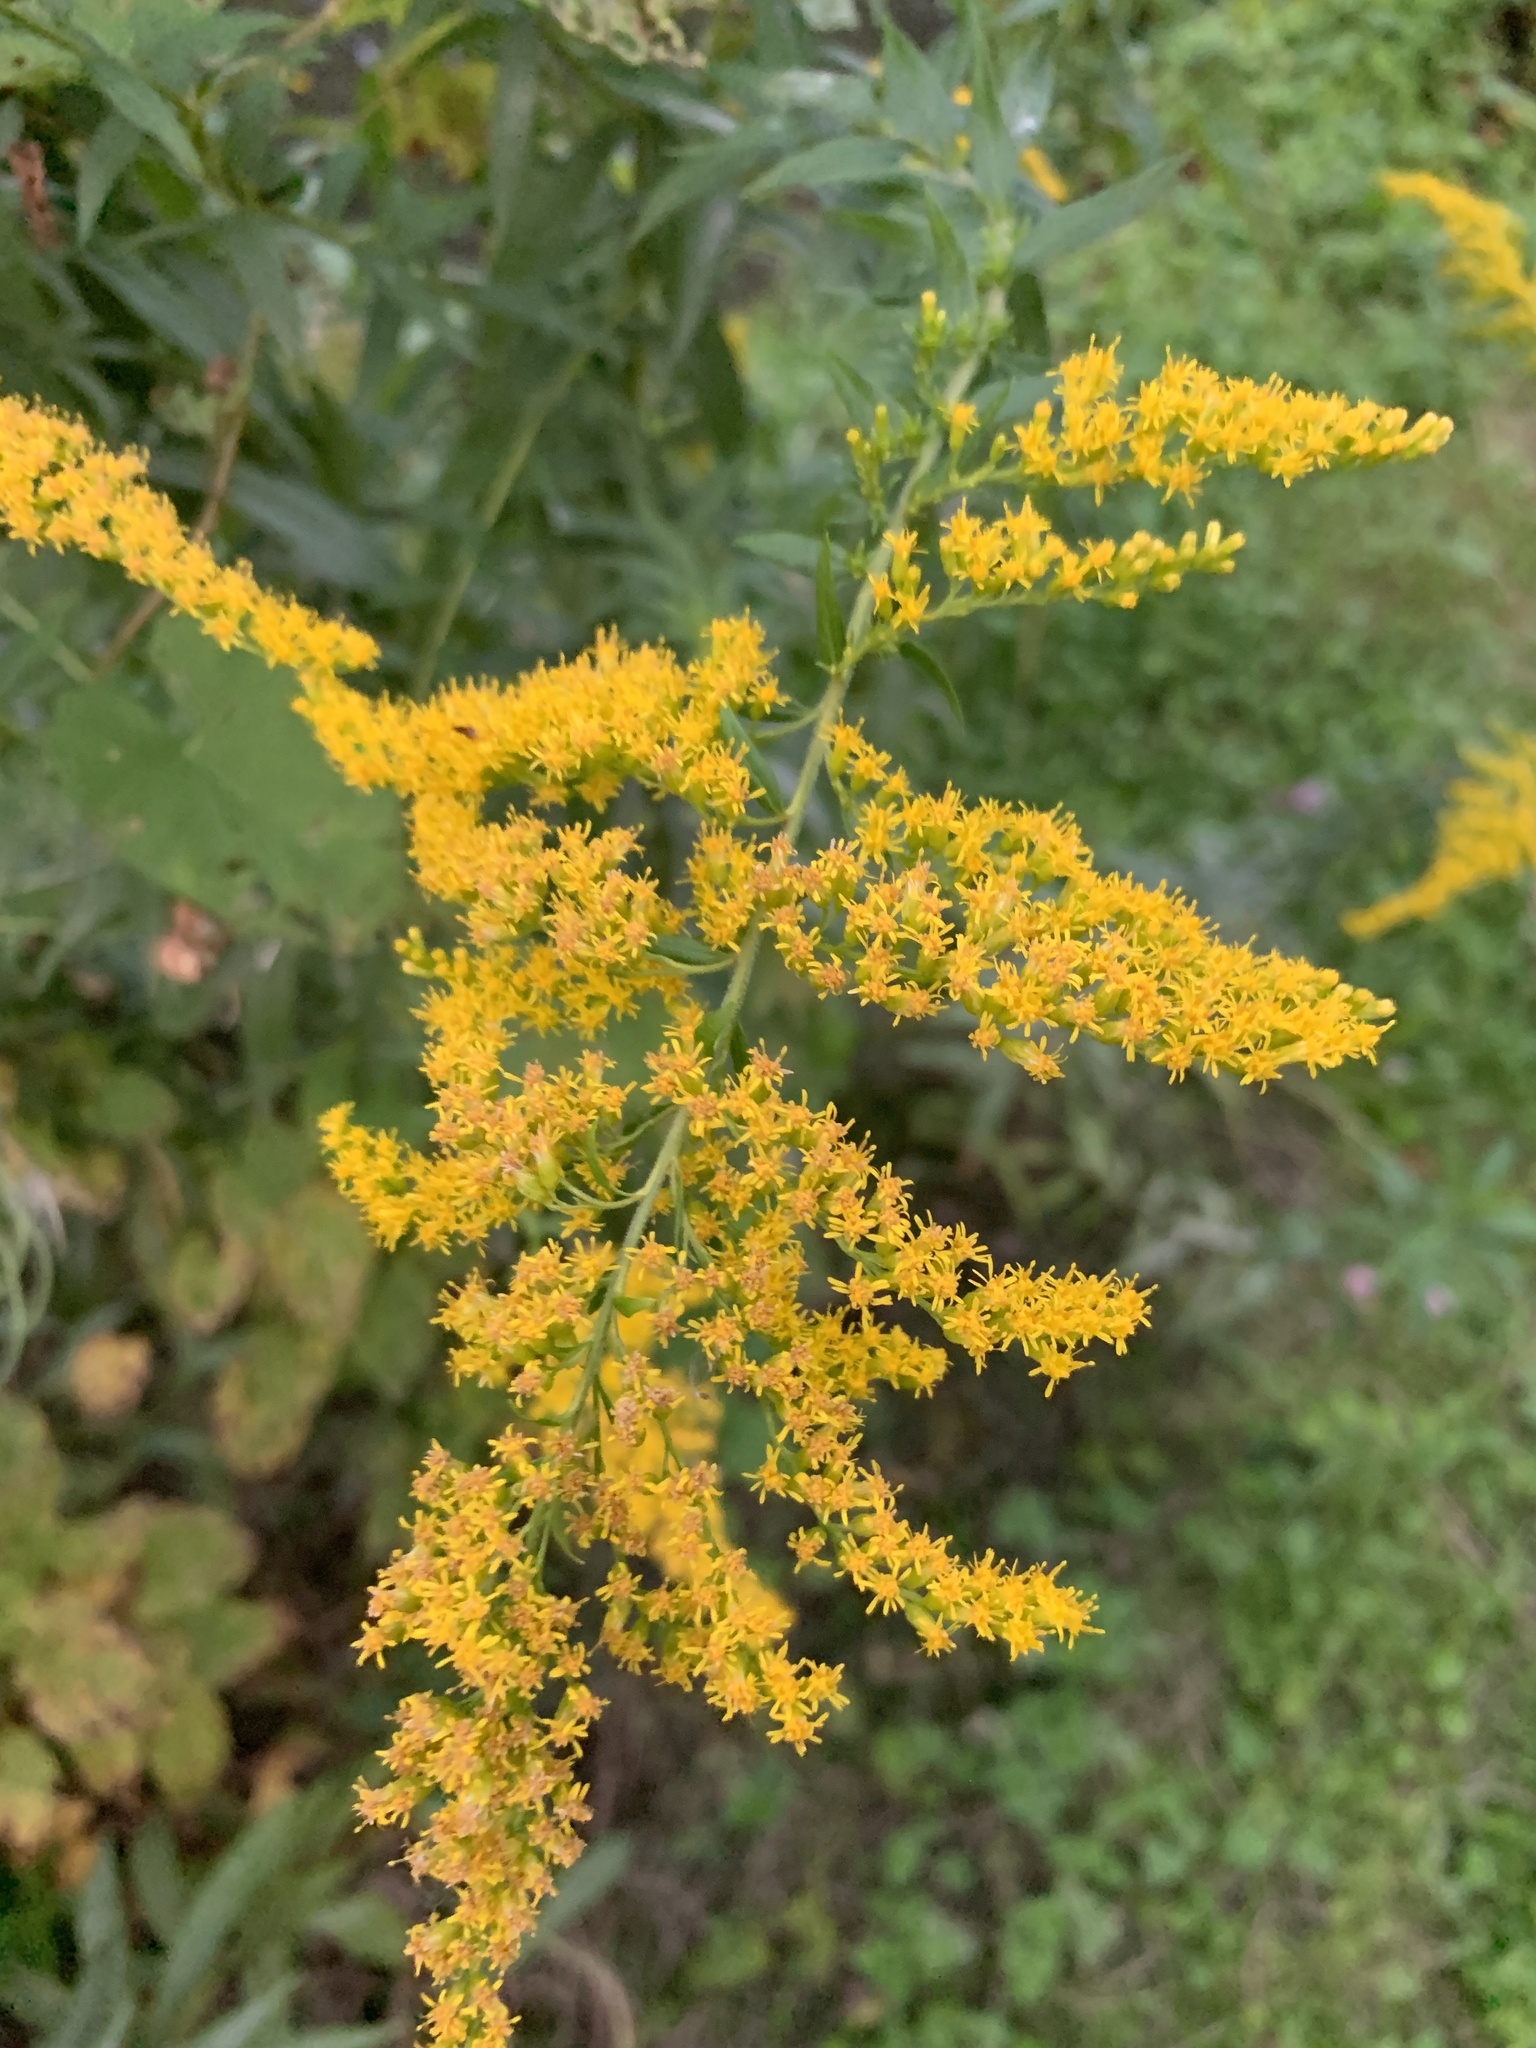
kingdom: Plantae
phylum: Tracheophyta
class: Magnoliopsida
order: Asterales
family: Asteraceae
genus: Solidago
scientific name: Solidago canadensis
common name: Canada goldenrod
